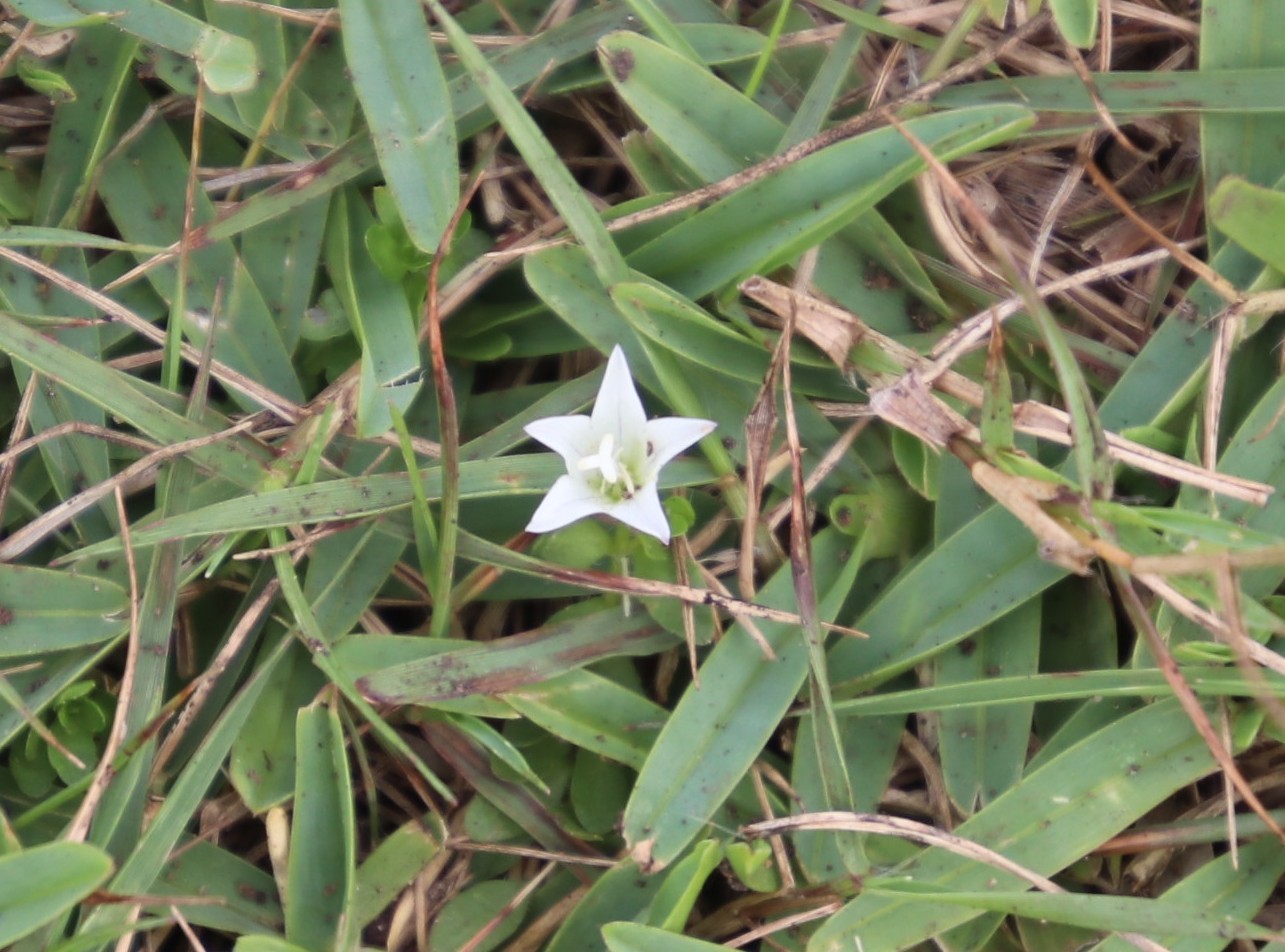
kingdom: Plantae
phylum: Tracheophyta
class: Magnoliopsida
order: Asterales
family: Campanulaceae
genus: Wahlenbergia
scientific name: Wahlenbergia procumbens
